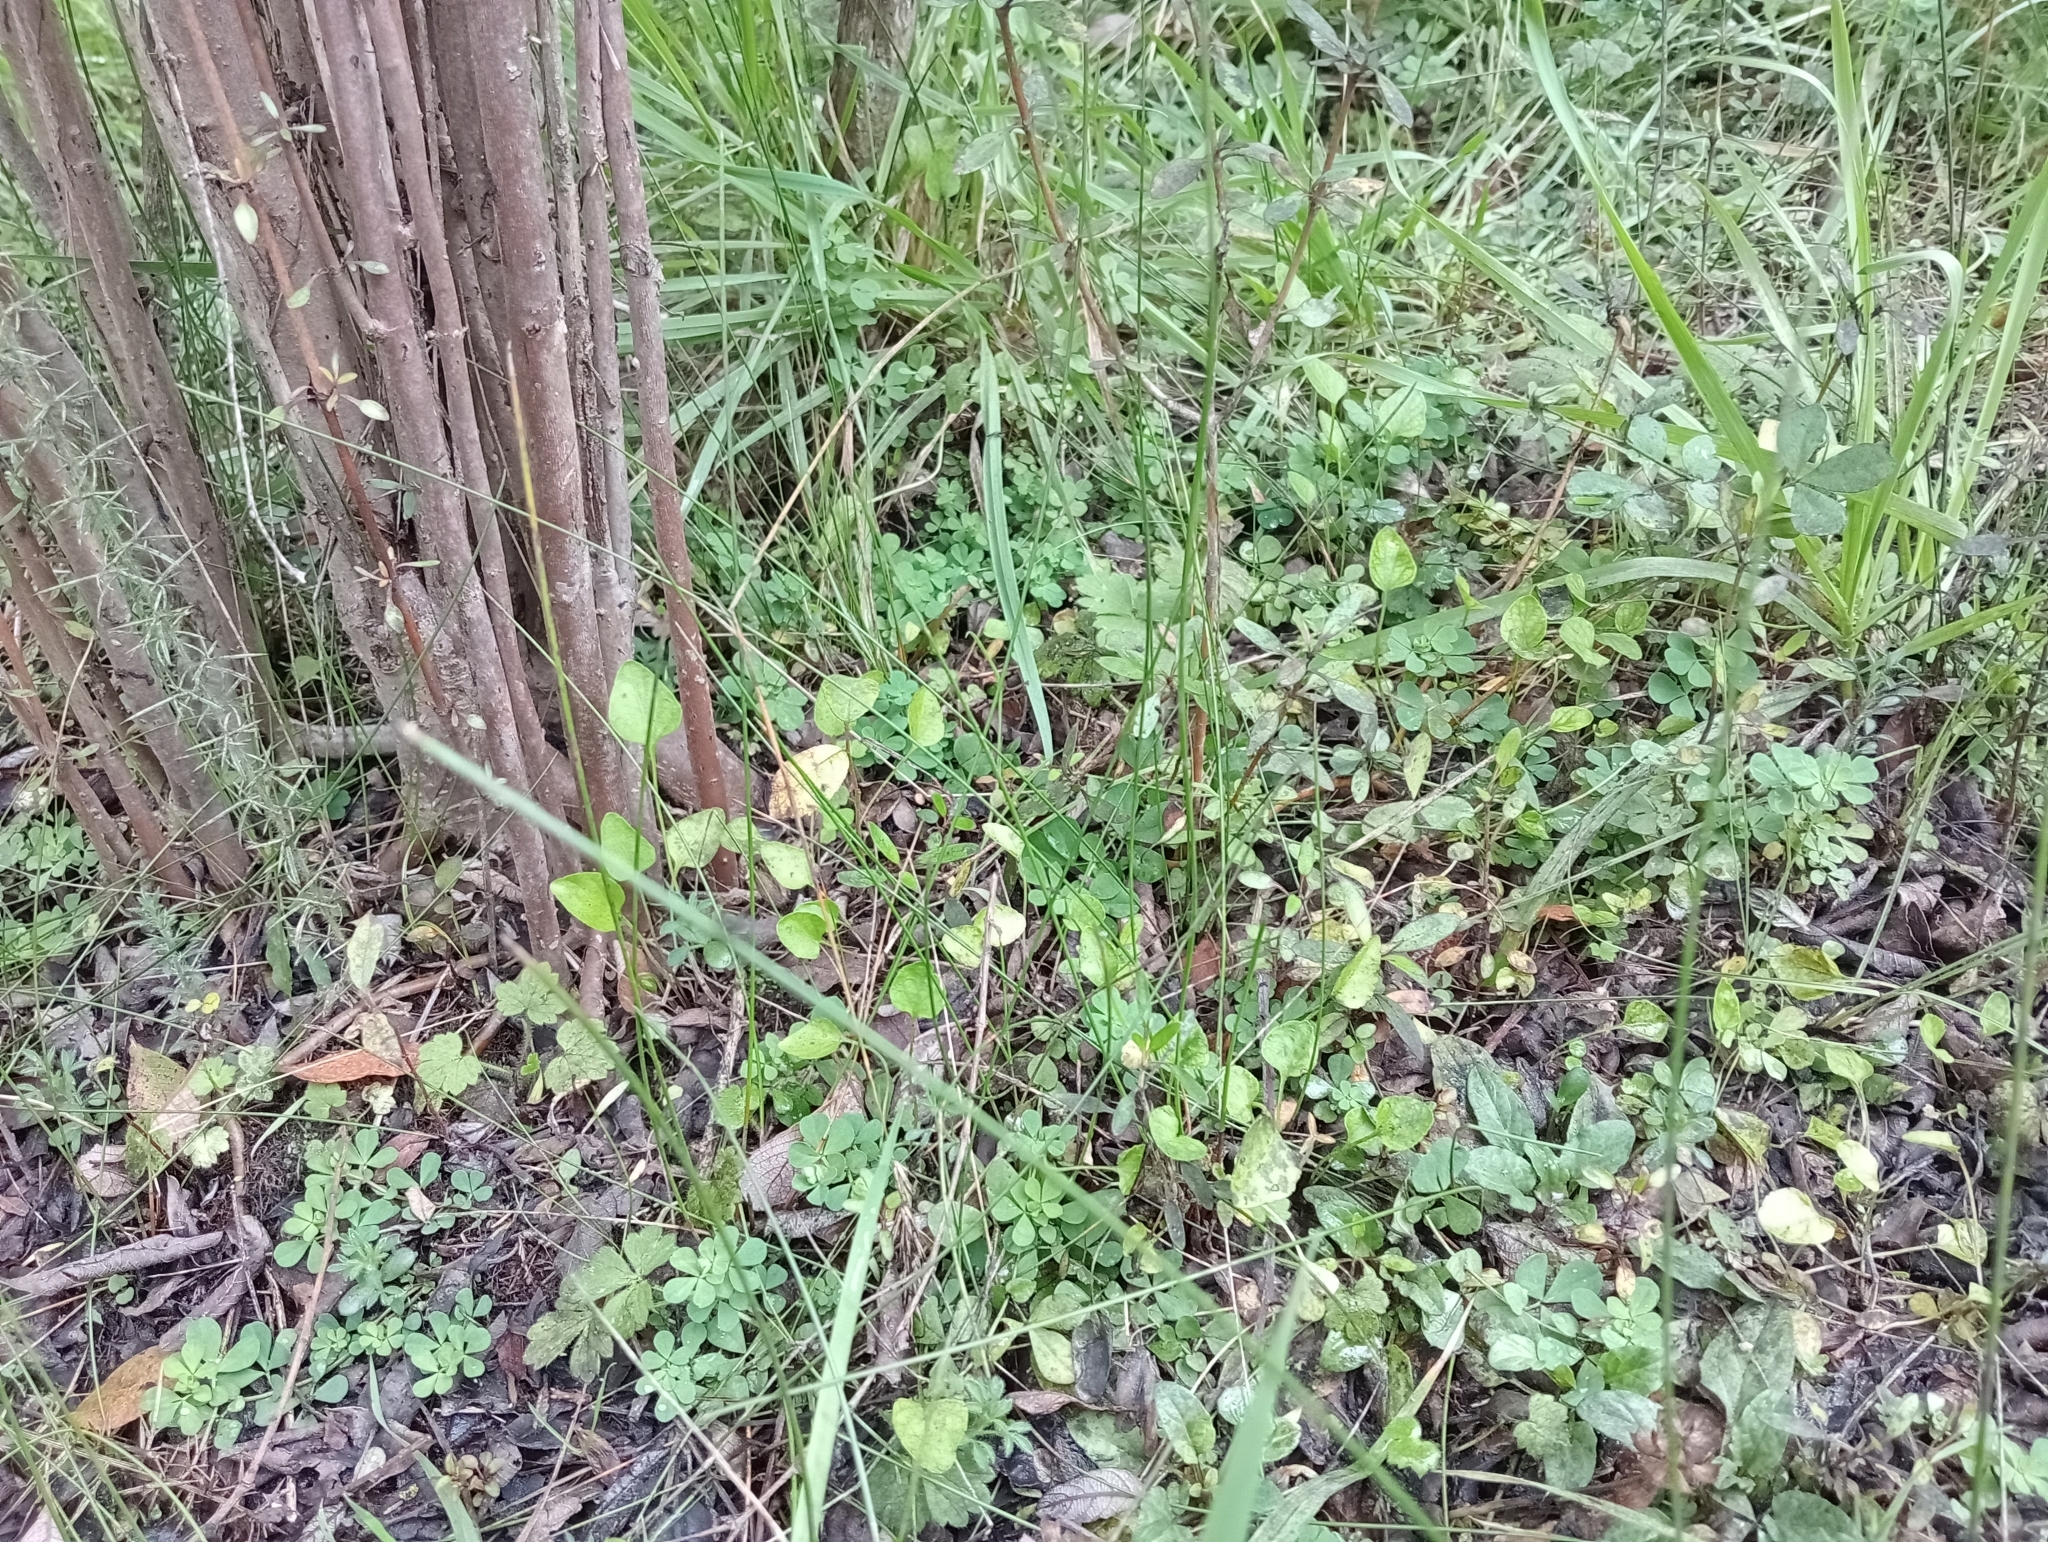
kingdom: Plantae
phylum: Tracheophyta
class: Magnoliopsida
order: Malpighiales
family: Violaceae
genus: Viola
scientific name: Viola cunninghamii
